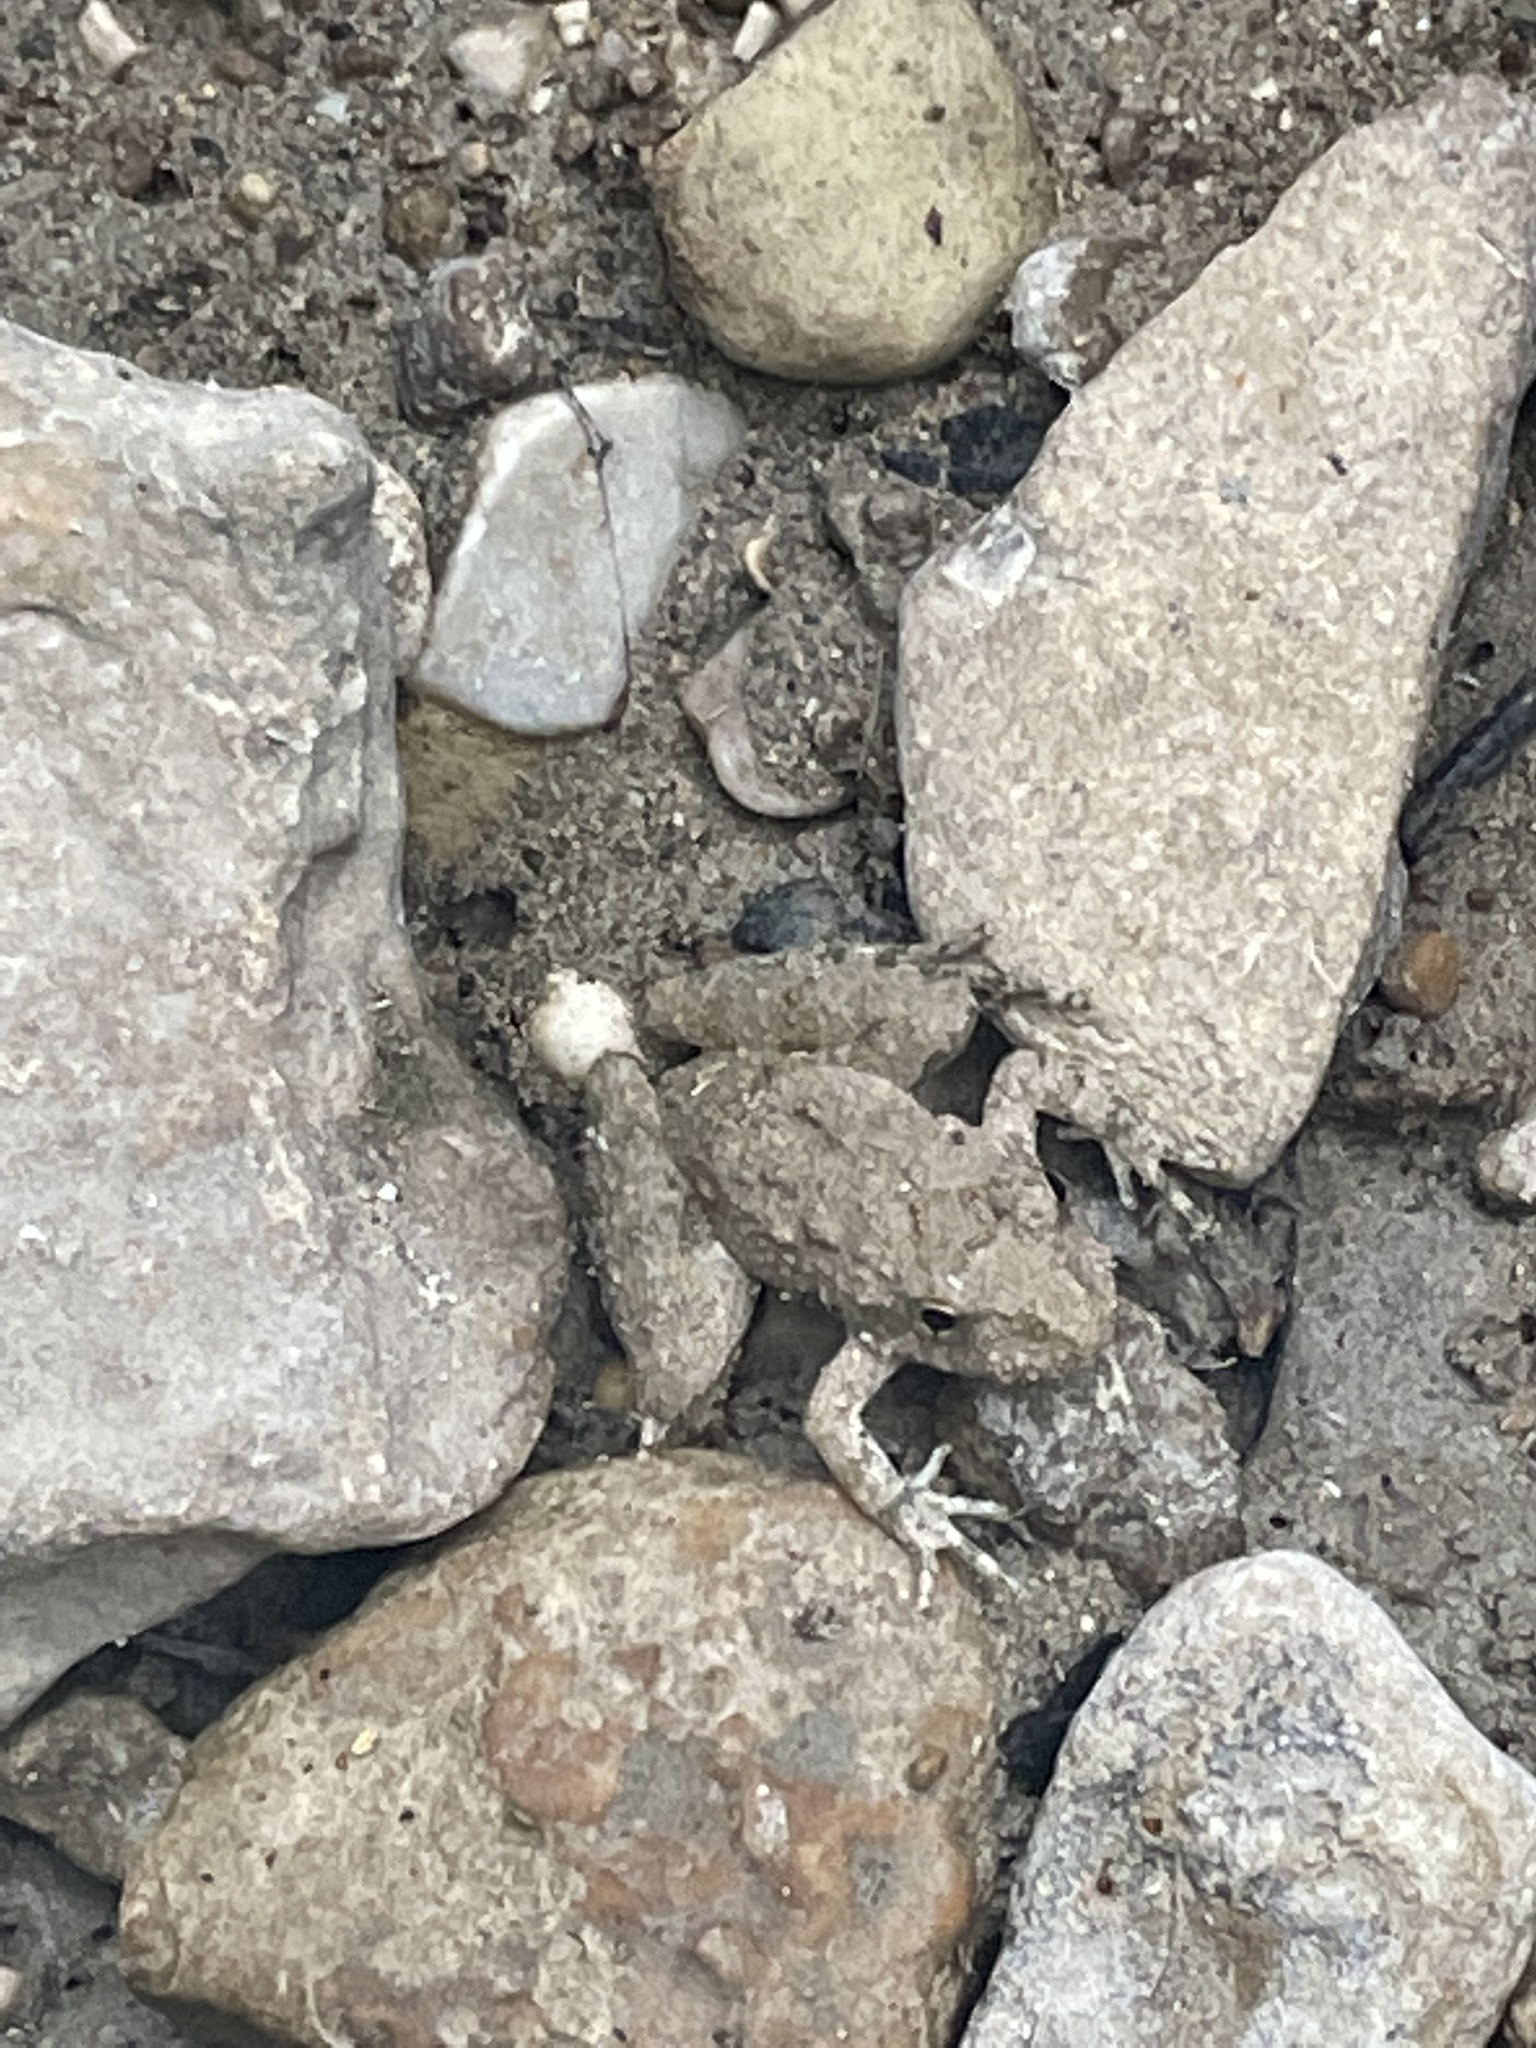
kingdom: Animalia
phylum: Chordata
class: Amphibia
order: Anura
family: Hylidae
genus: Acris
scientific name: Acris blanchardi
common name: Blanchard's cricket frog
